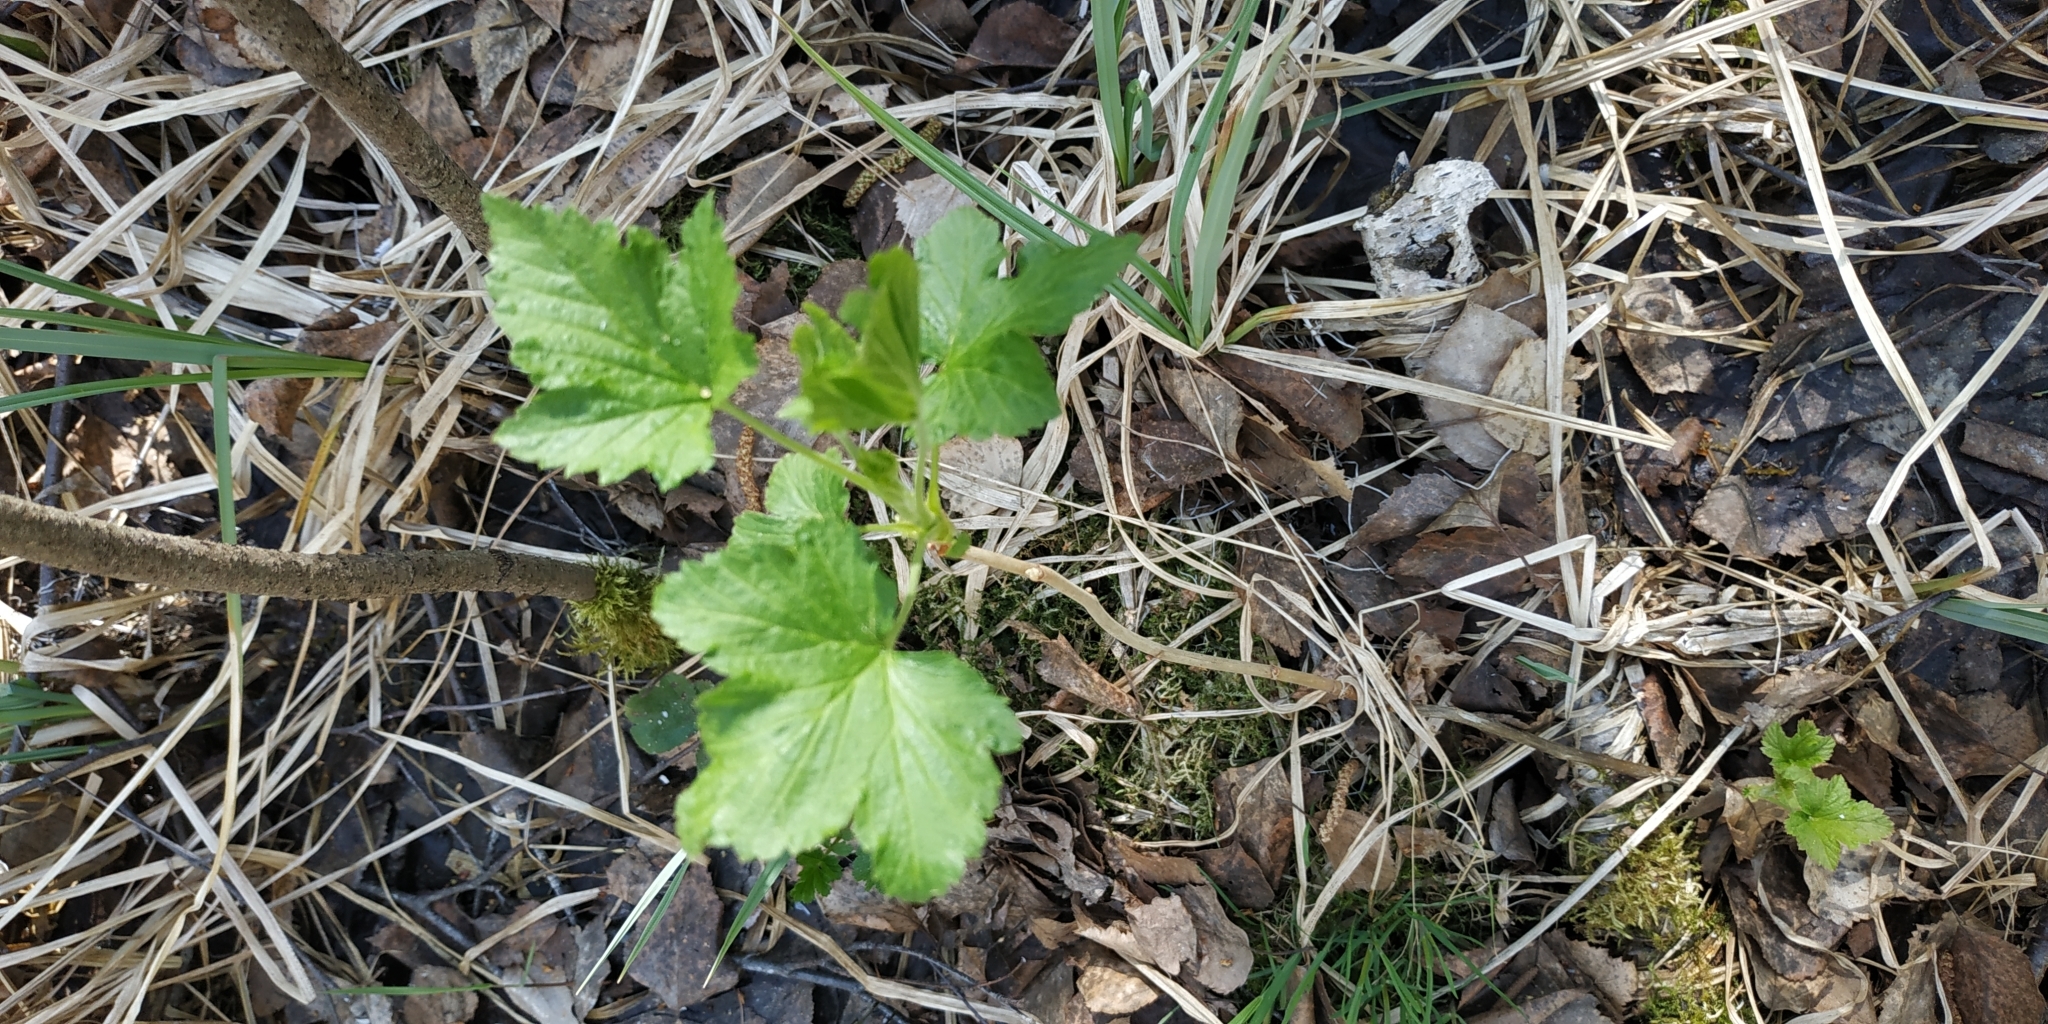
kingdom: Plantae
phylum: Tracheophyta
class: Magnoliopsida
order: Saxifragales
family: Grossulariaceae
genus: Ribes
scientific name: Ribes nigrum
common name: Black currant
